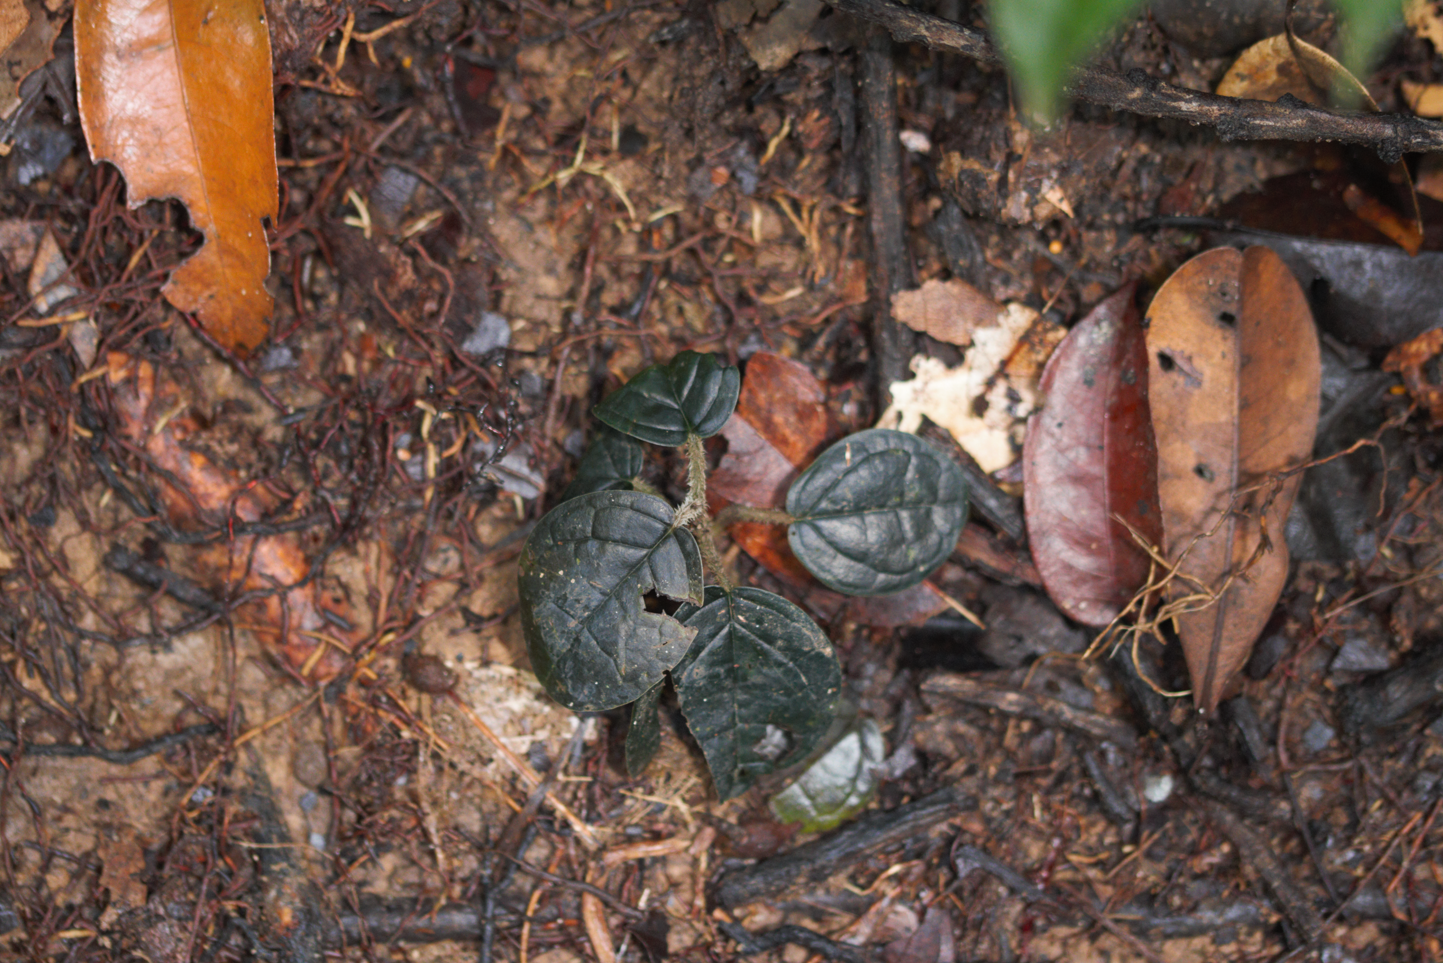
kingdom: Plantae
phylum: Tracheophyta
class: Magnoliopsida
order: Piperales
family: Piperaceae
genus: Piper
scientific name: Piper humistratum
